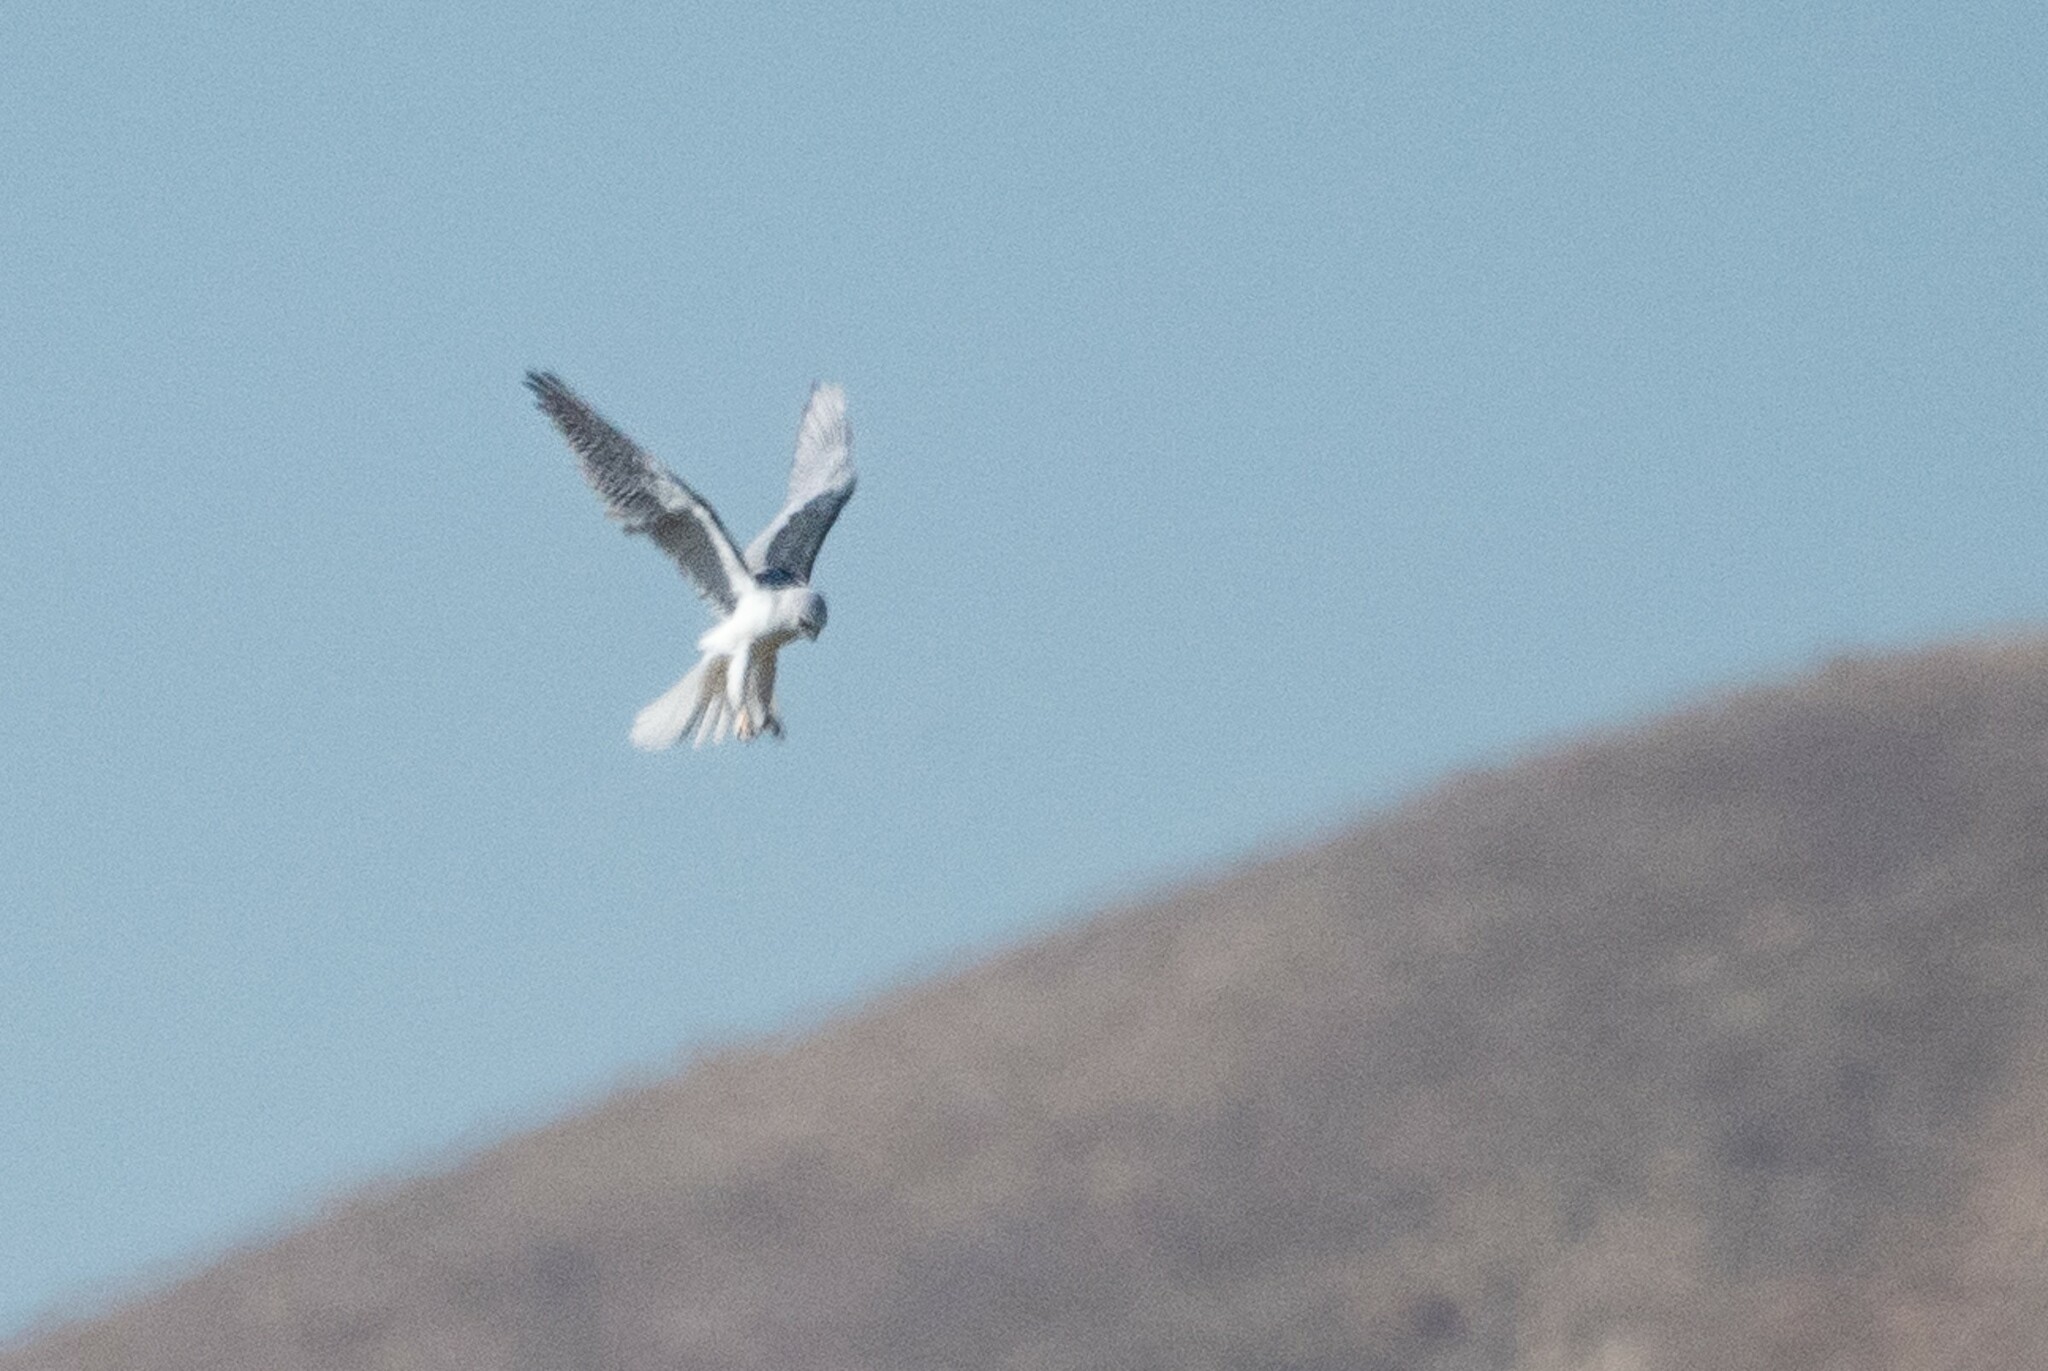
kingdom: Animalia
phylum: Chordata
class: Aves
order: Accipitriformes
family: Accipitridae
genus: Elanus
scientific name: Elanus leucurus
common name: White-tailed kite
